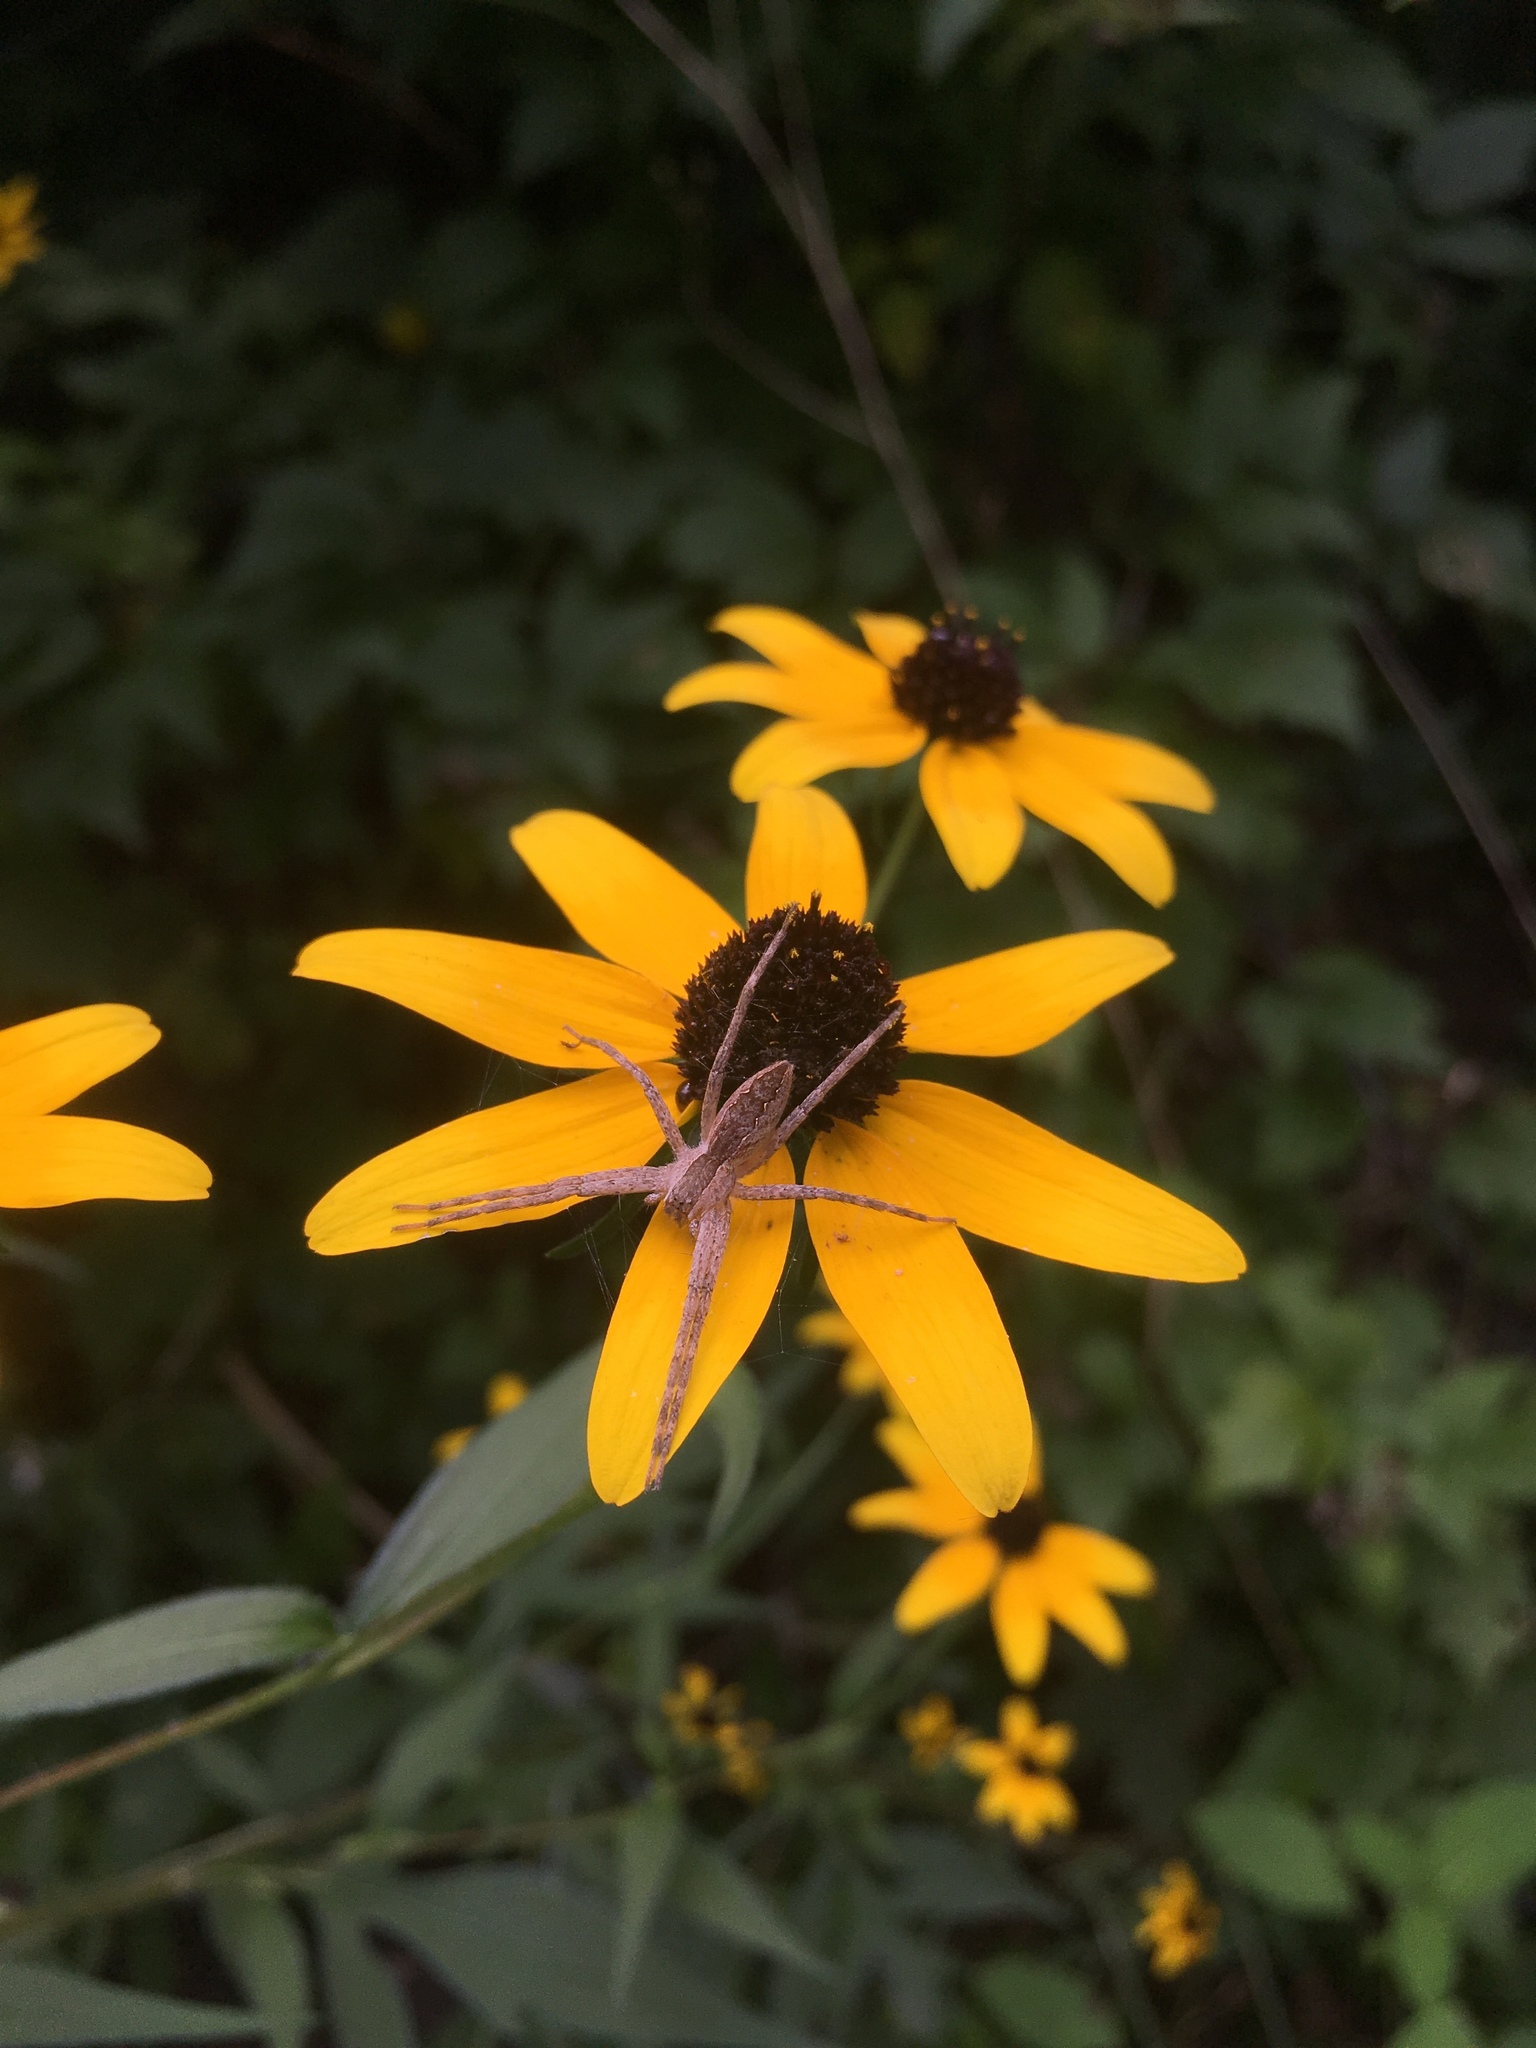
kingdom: Animalia
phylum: Arthropoda
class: Arachnida
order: Araneae
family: Pisauridae
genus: Pisaurina
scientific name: Pisaurina mira
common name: American nursery web spider
